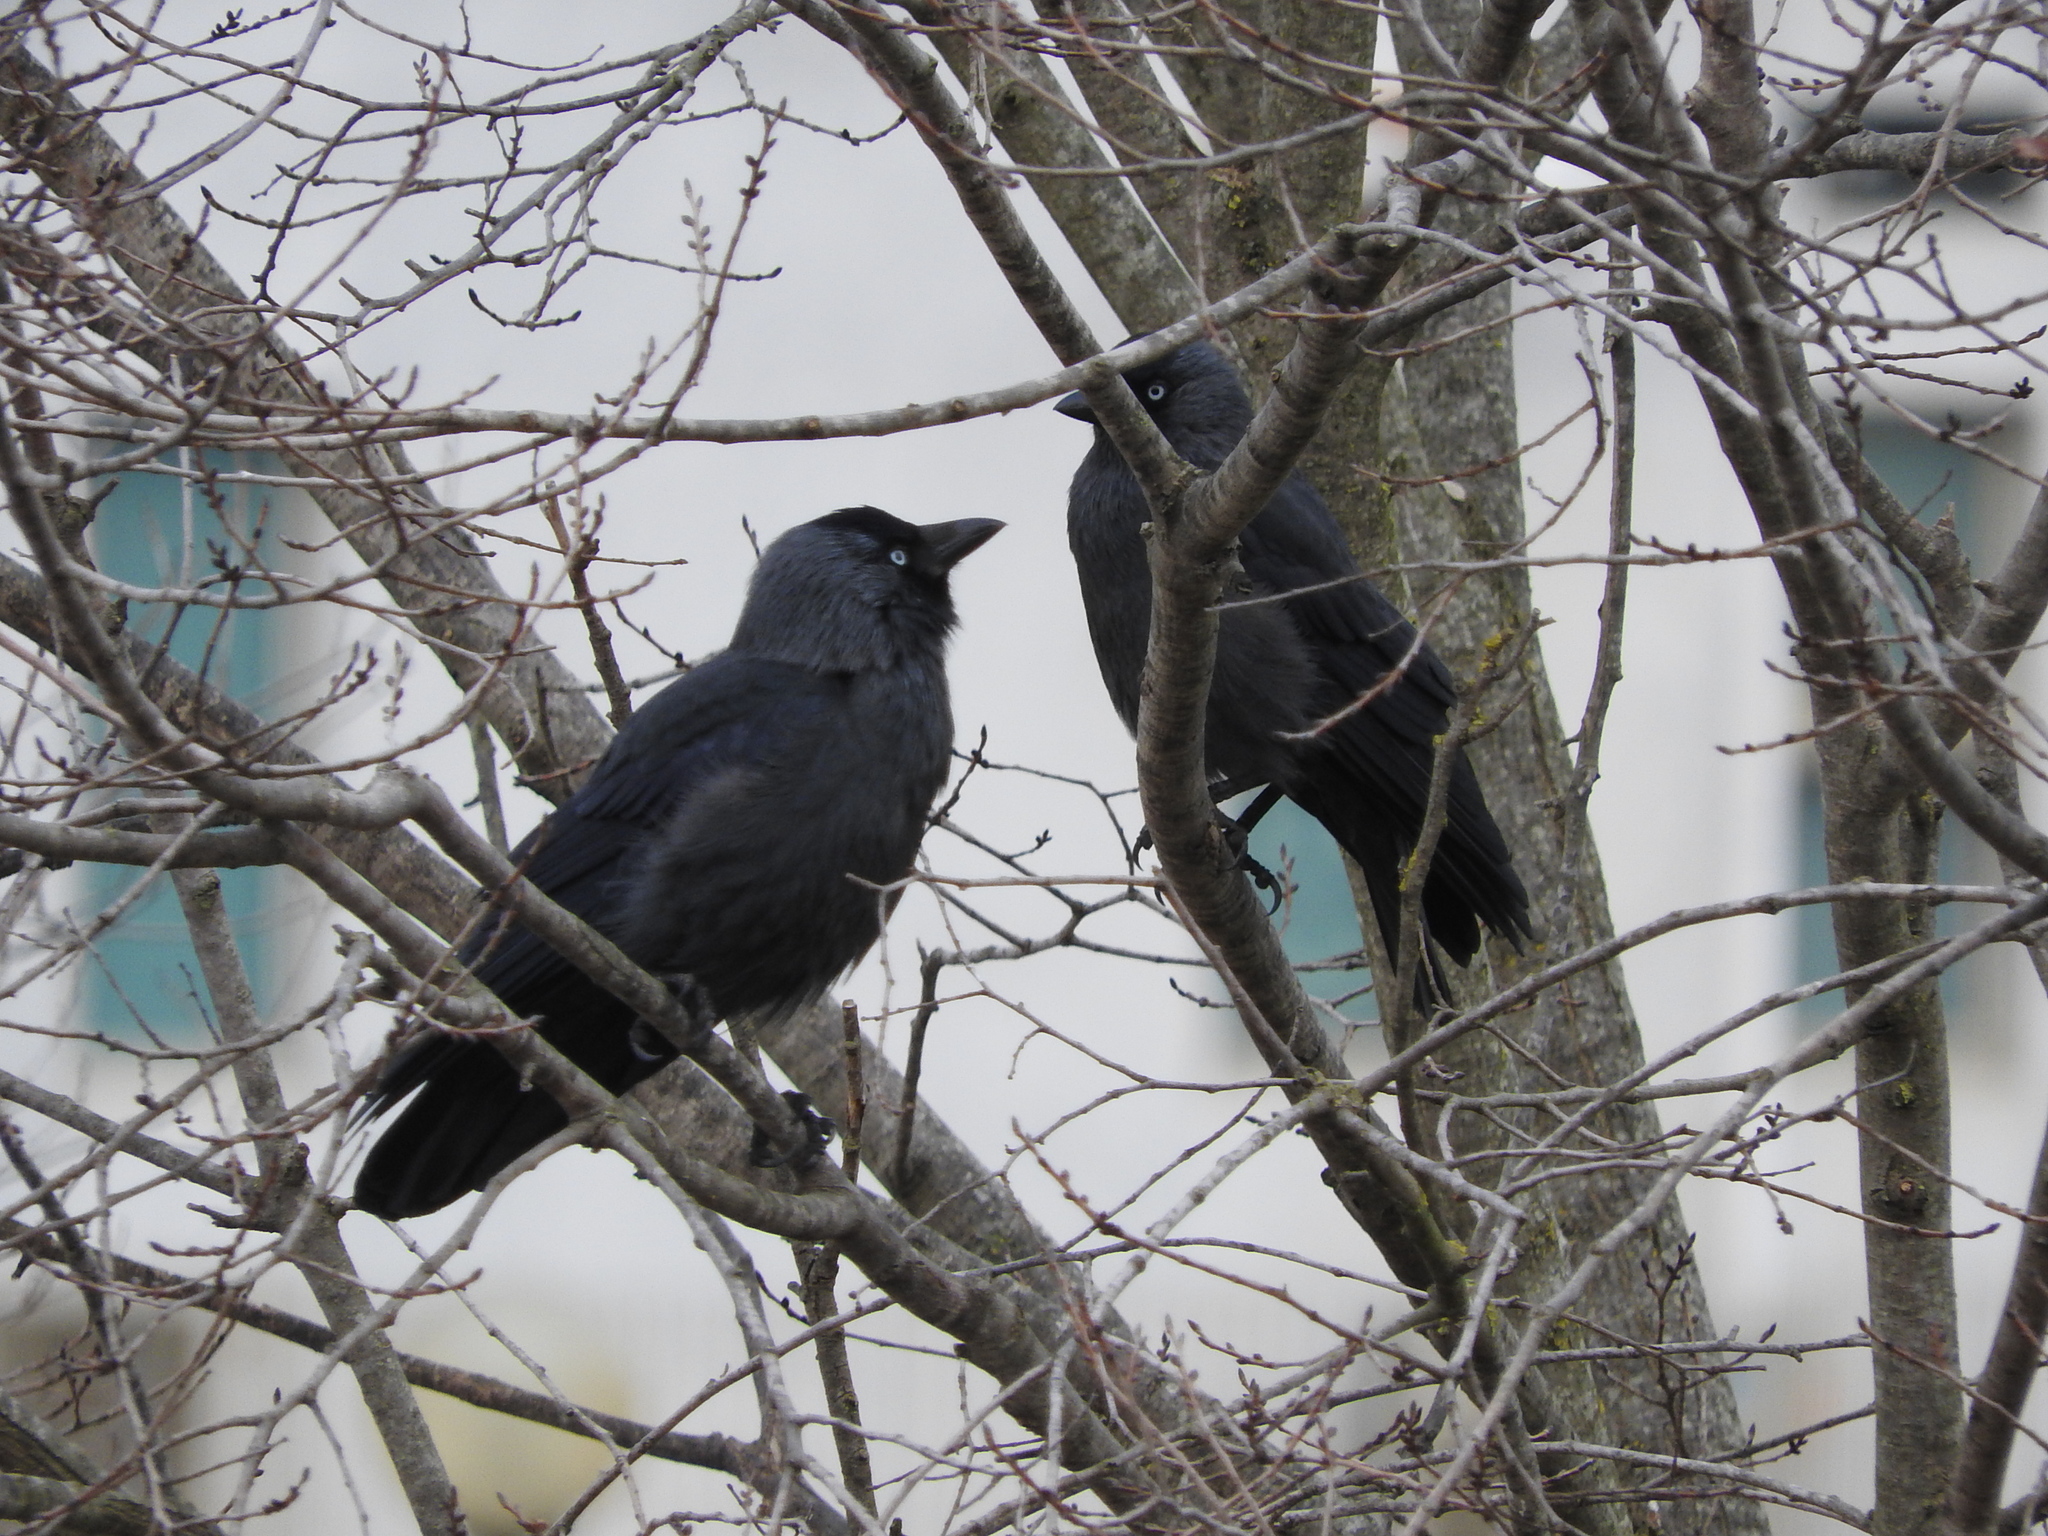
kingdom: Animalia
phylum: Chordata
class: Aves
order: Passeriformes
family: Corvidae
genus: Coloeus
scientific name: Coloeus monedula
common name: Western jackdaw
